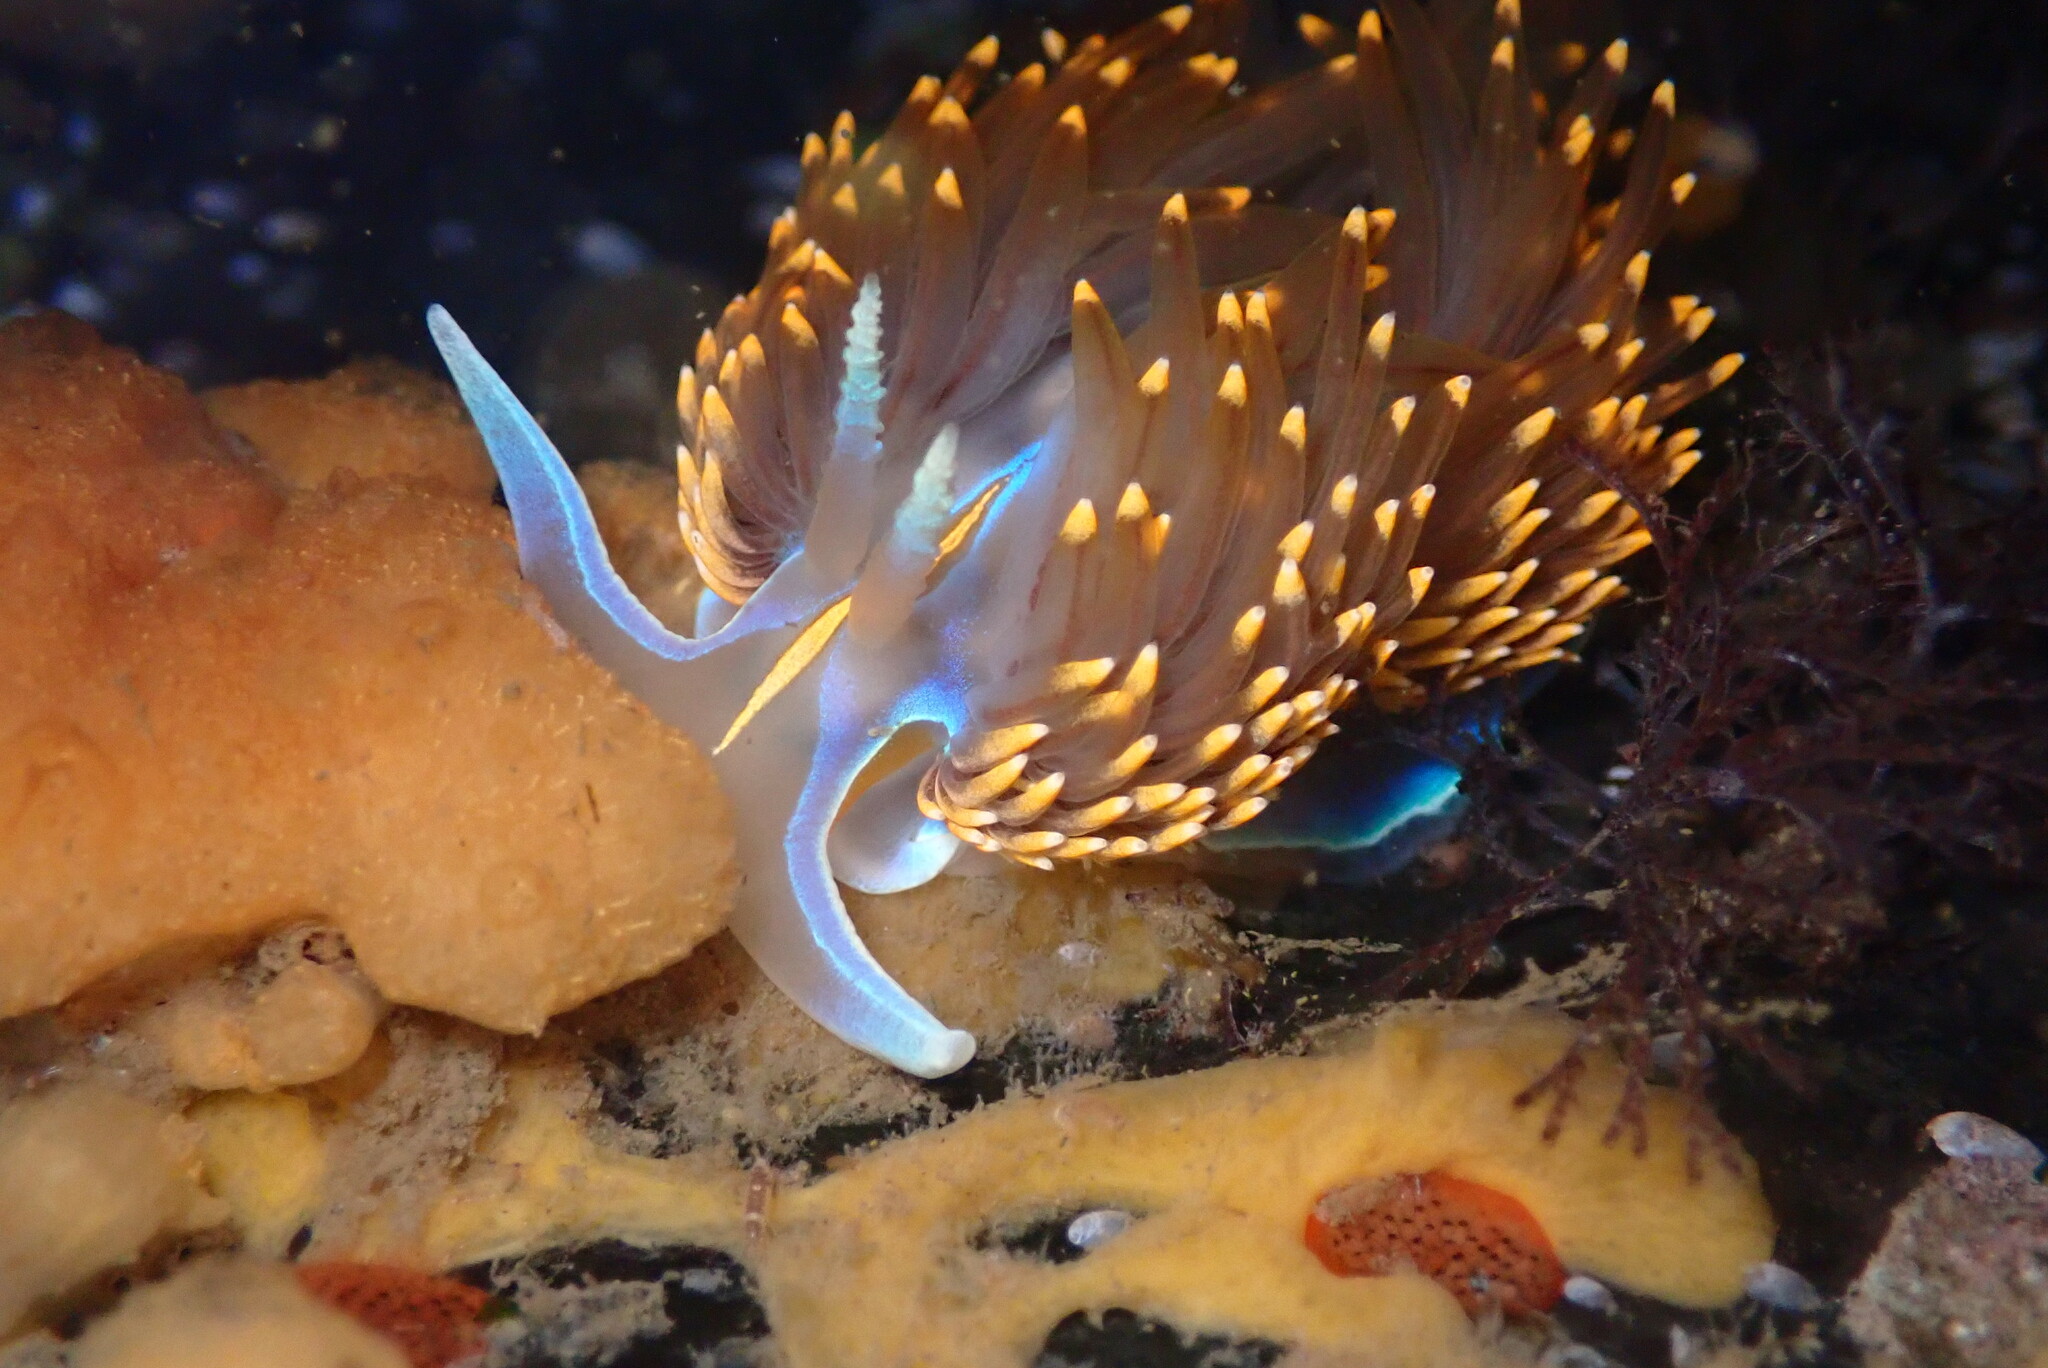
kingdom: Animalia
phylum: Mollusca
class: Gastropoda
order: Nudibranchia
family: Myrrhinidae
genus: Hermissenda
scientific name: Hermissenda opalescens
